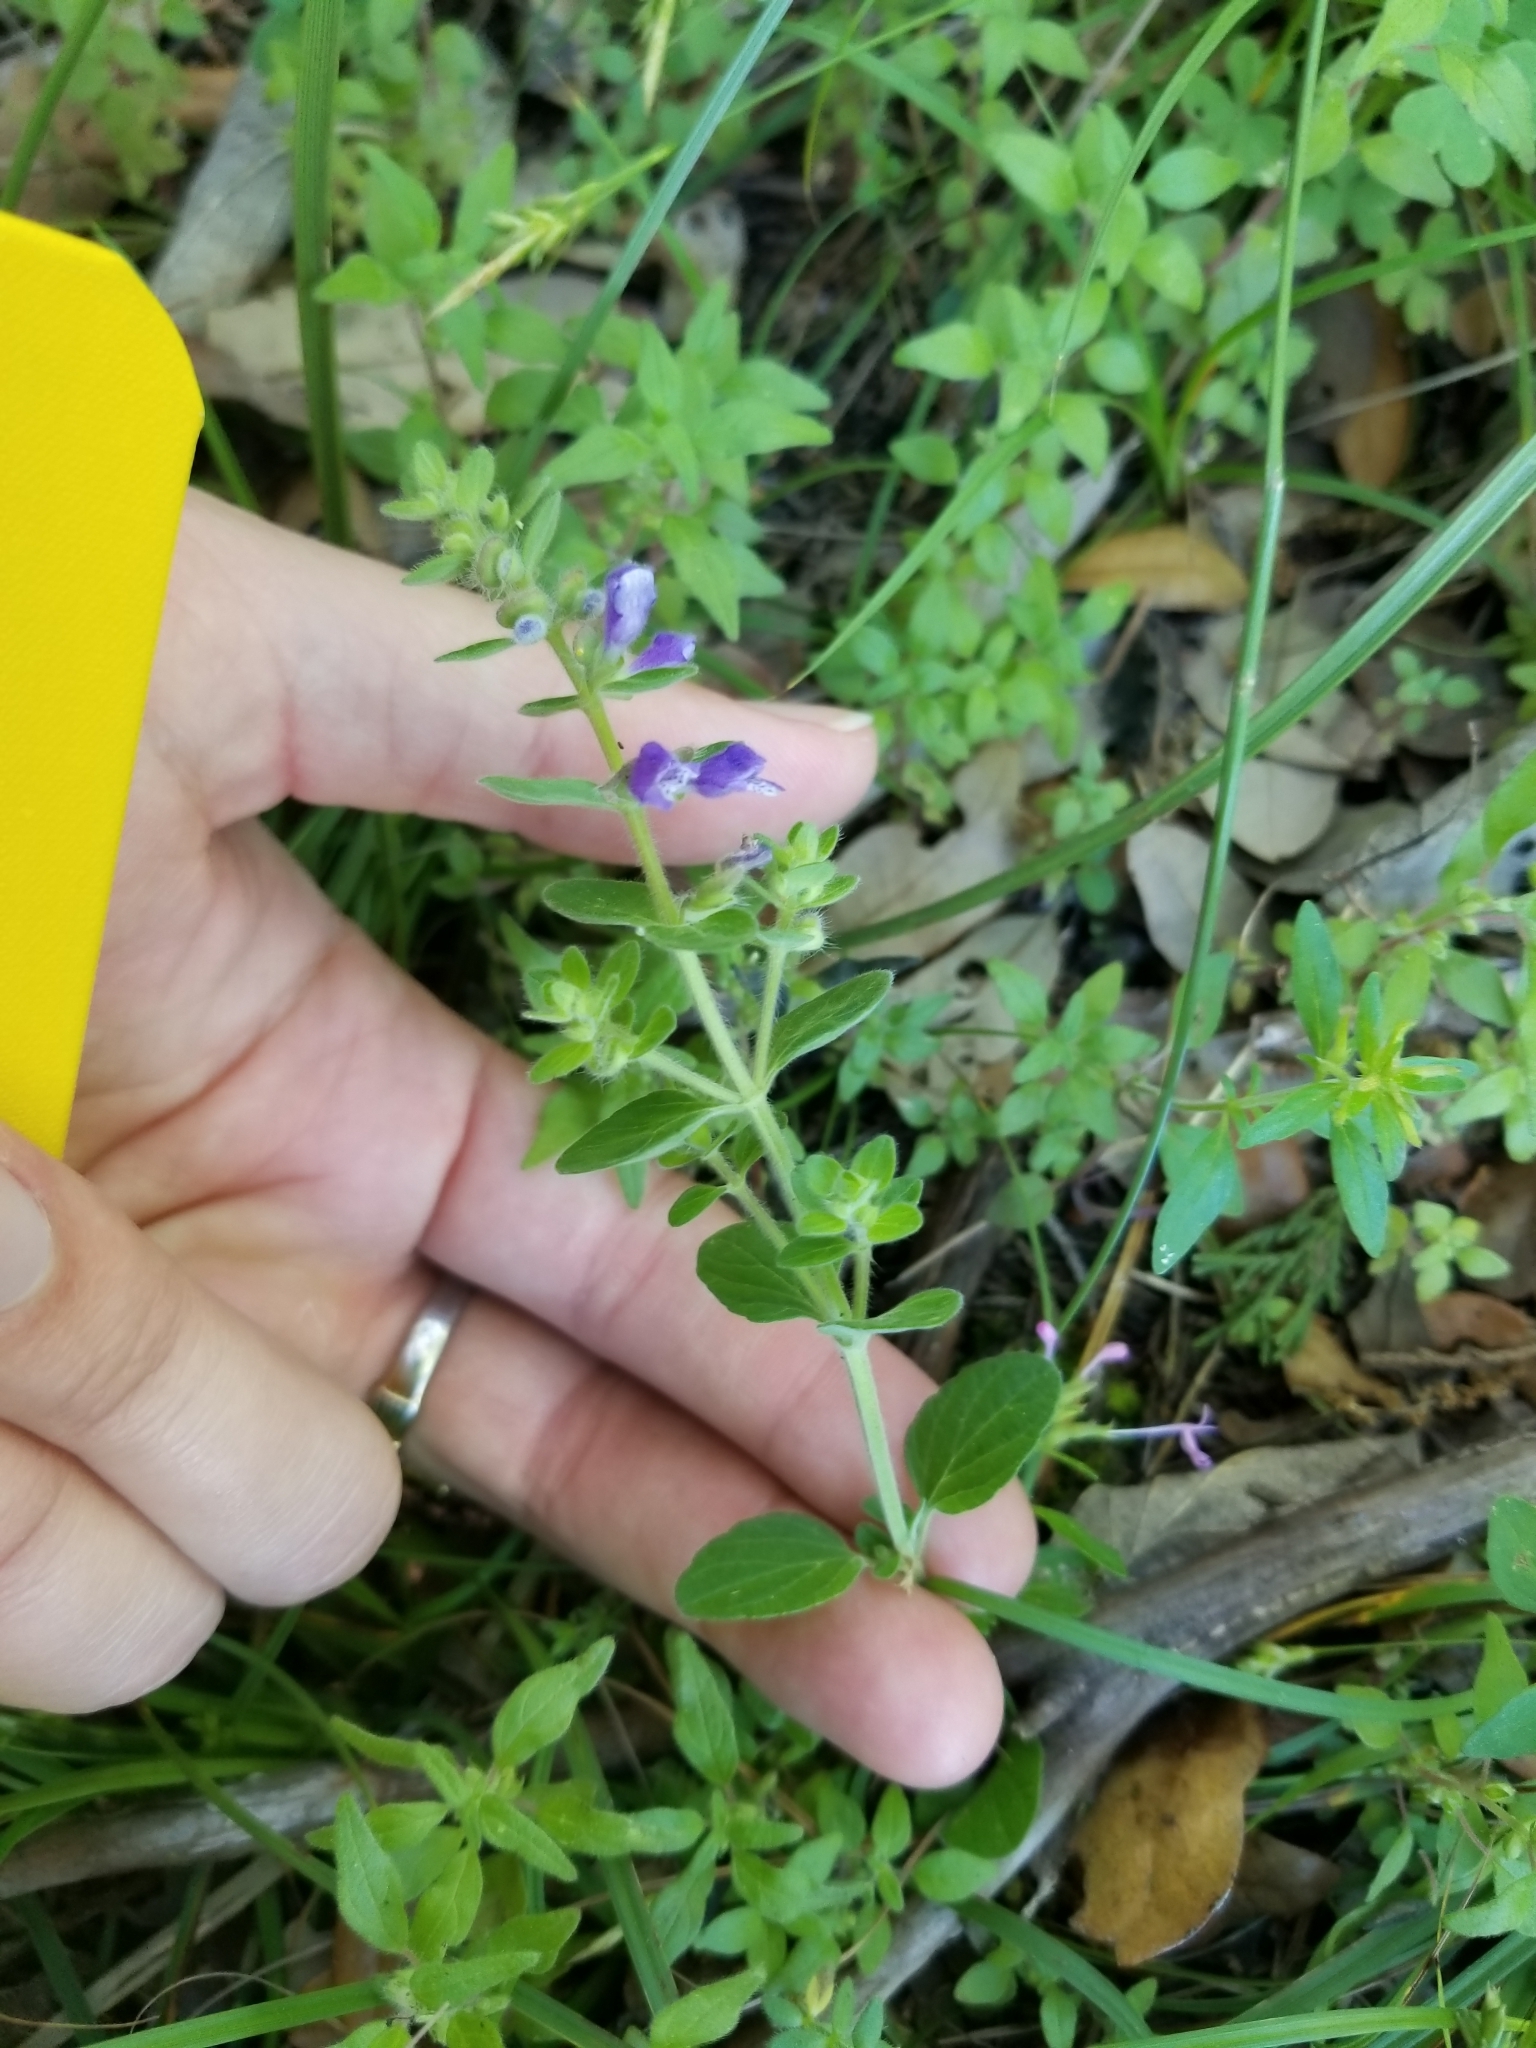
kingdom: Plantae
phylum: Tracheophyta
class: Magnoliopsida
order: Lamiales
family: Lamiaceae
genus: Scutellaria
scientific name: Scutellaria drummondii
